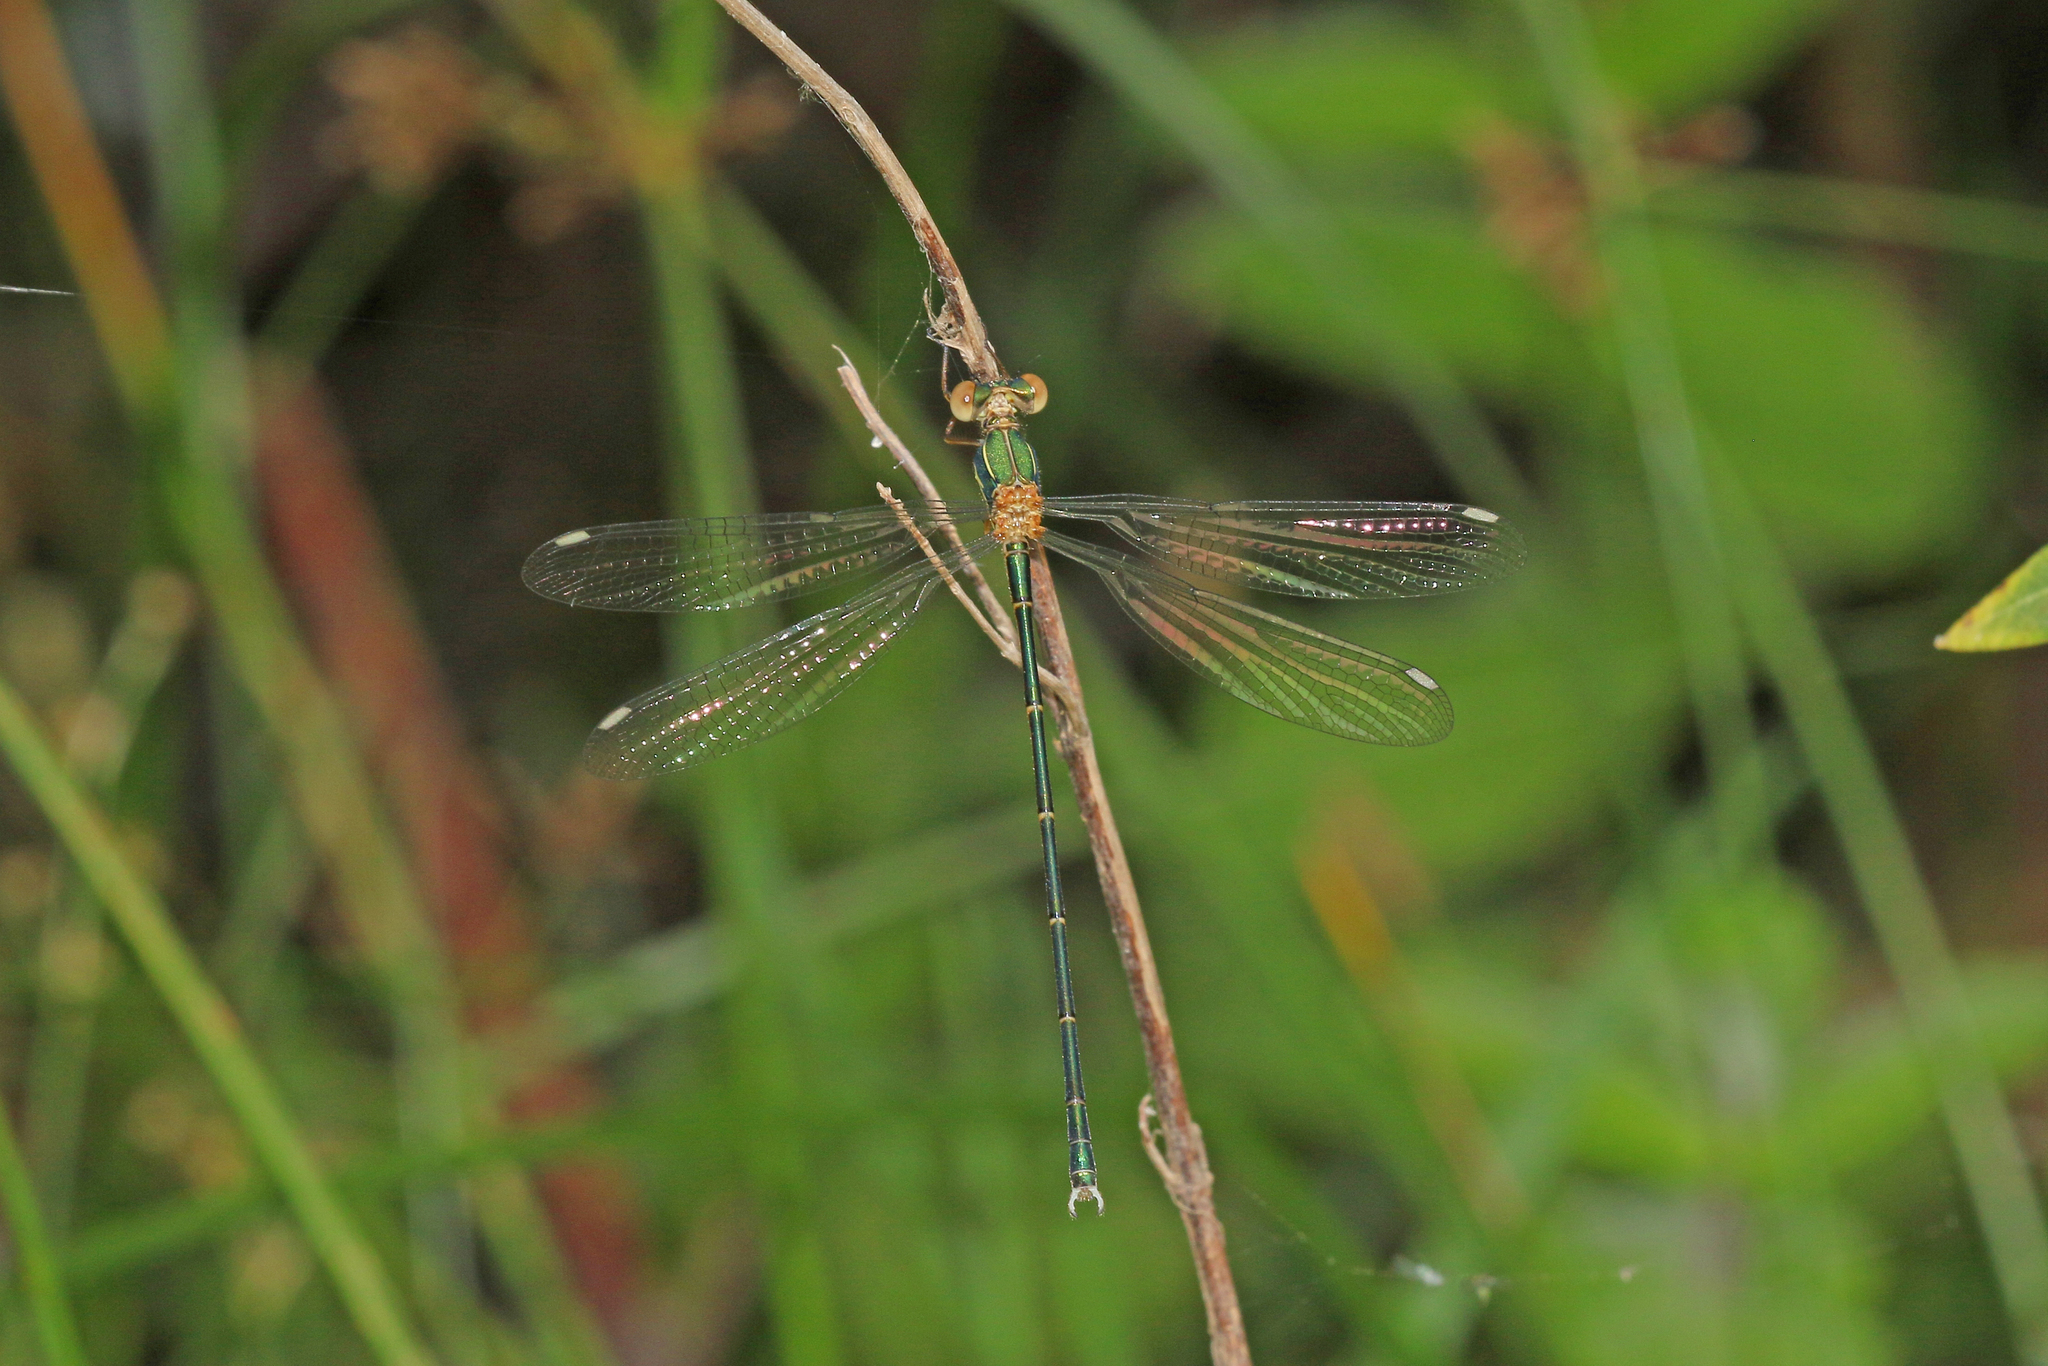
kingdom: Animalia
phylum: Arthropoda
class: Insecta
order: Odonata
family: Lestidae
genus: Chalcolestes
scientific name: Chalcolestes viridis
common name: Green emerald damselfly
